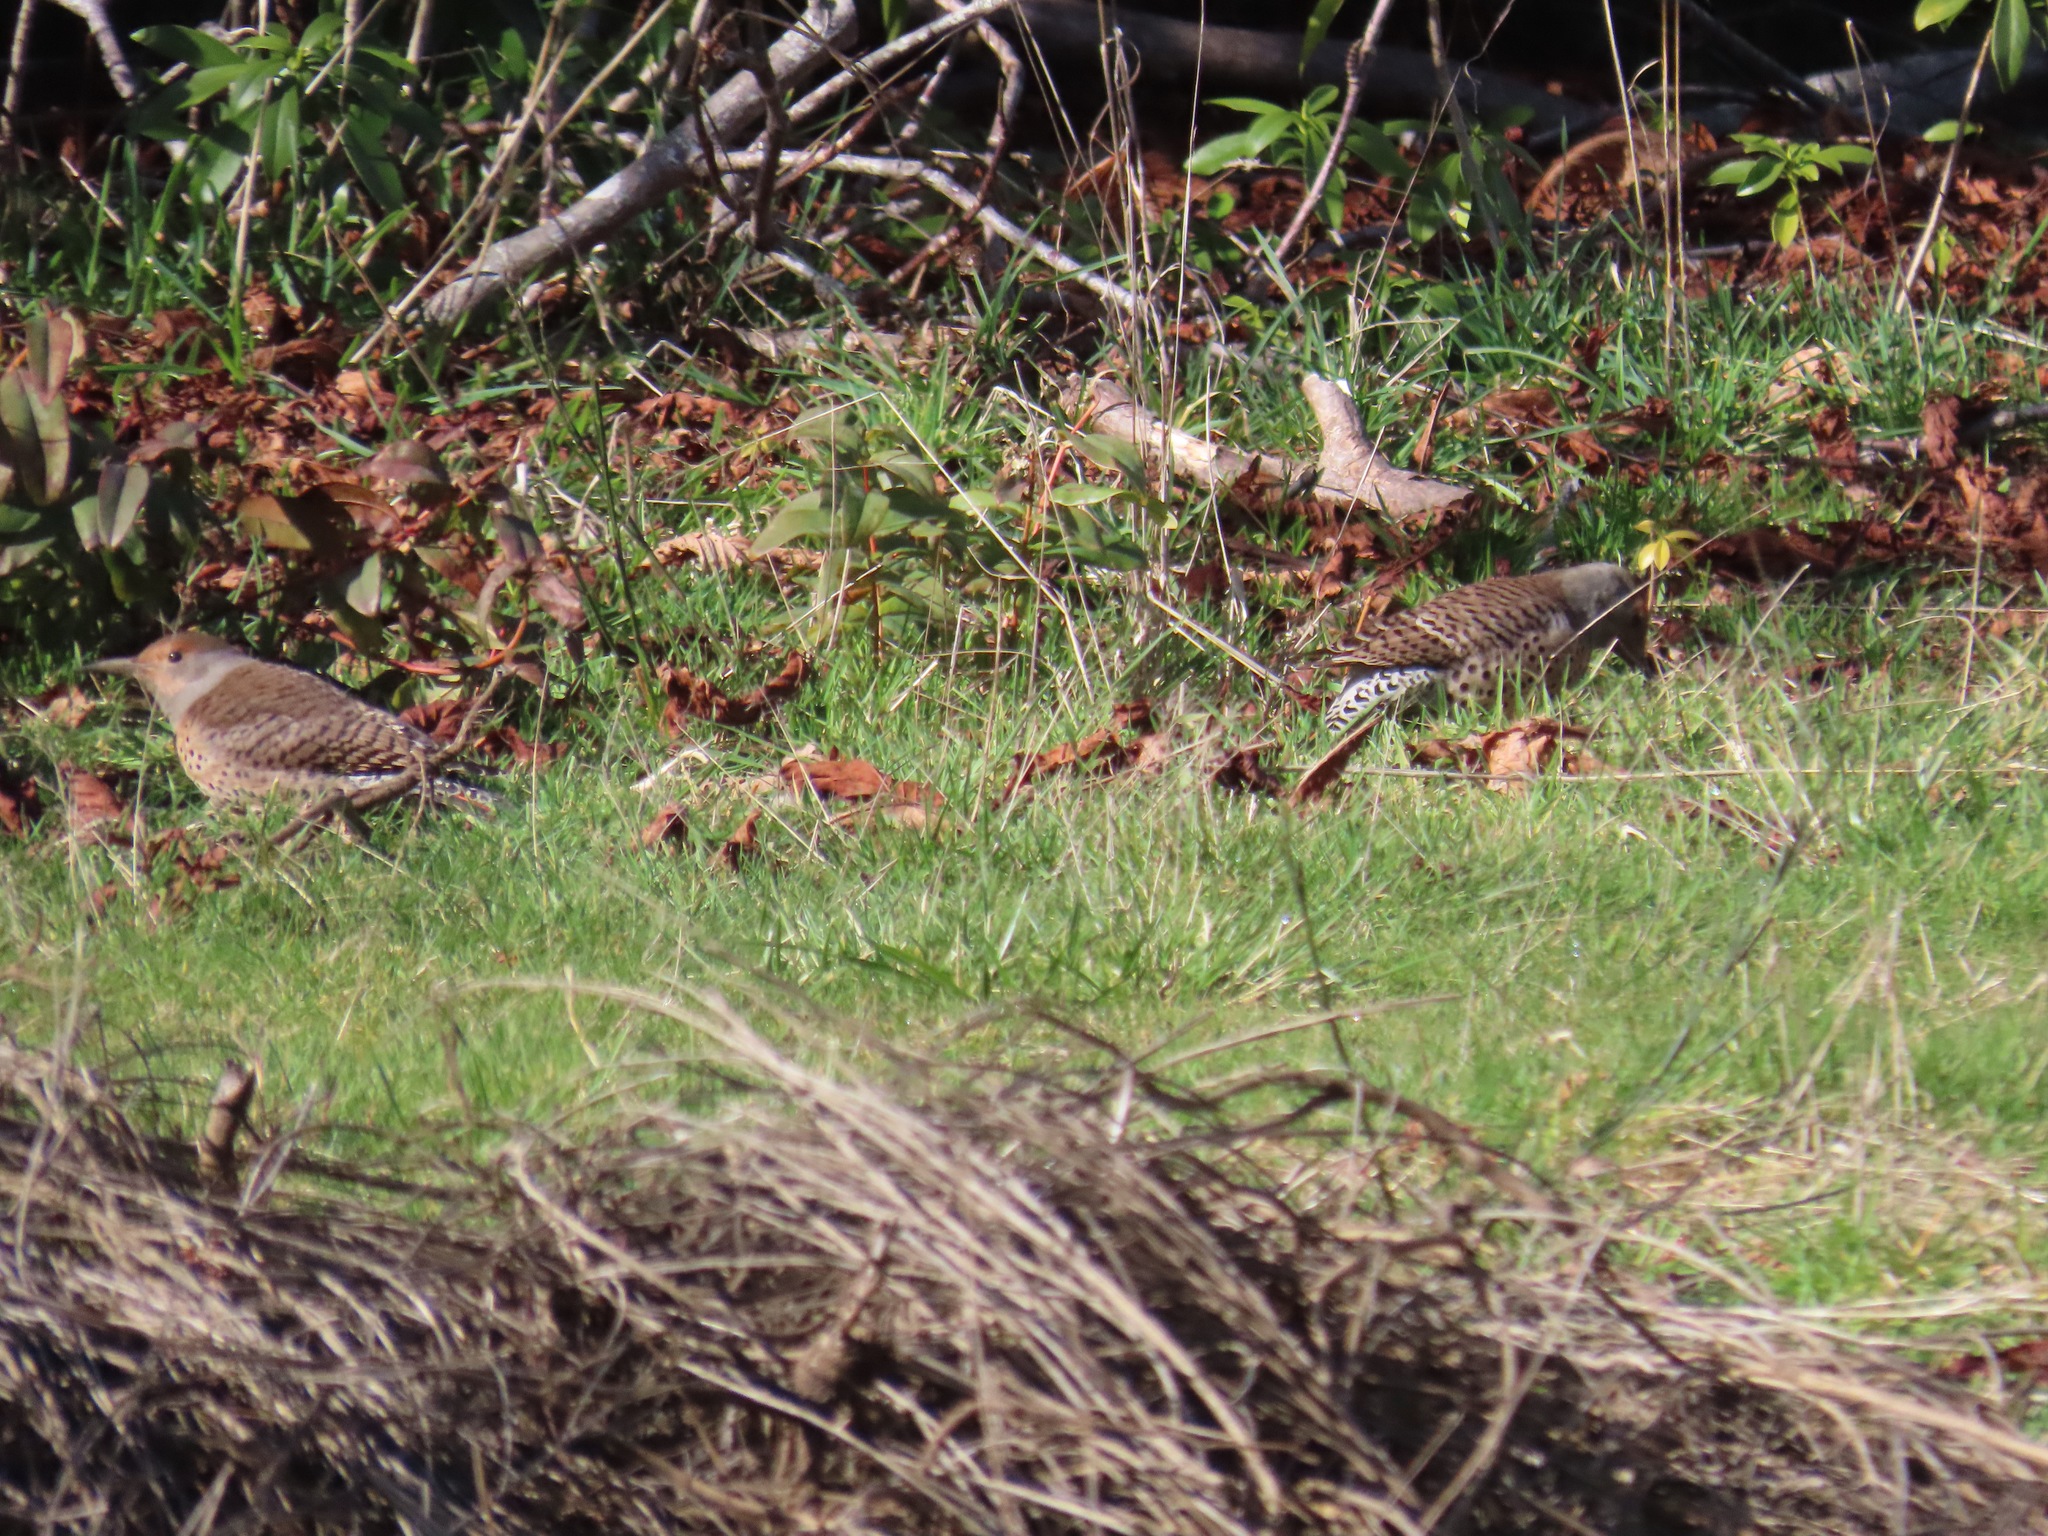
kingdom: Animalia
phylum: Chordata
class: Aves
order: Piciformes
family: Picidae
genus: Colaptes
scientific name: Colaptes auratus
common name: Northern flicker
